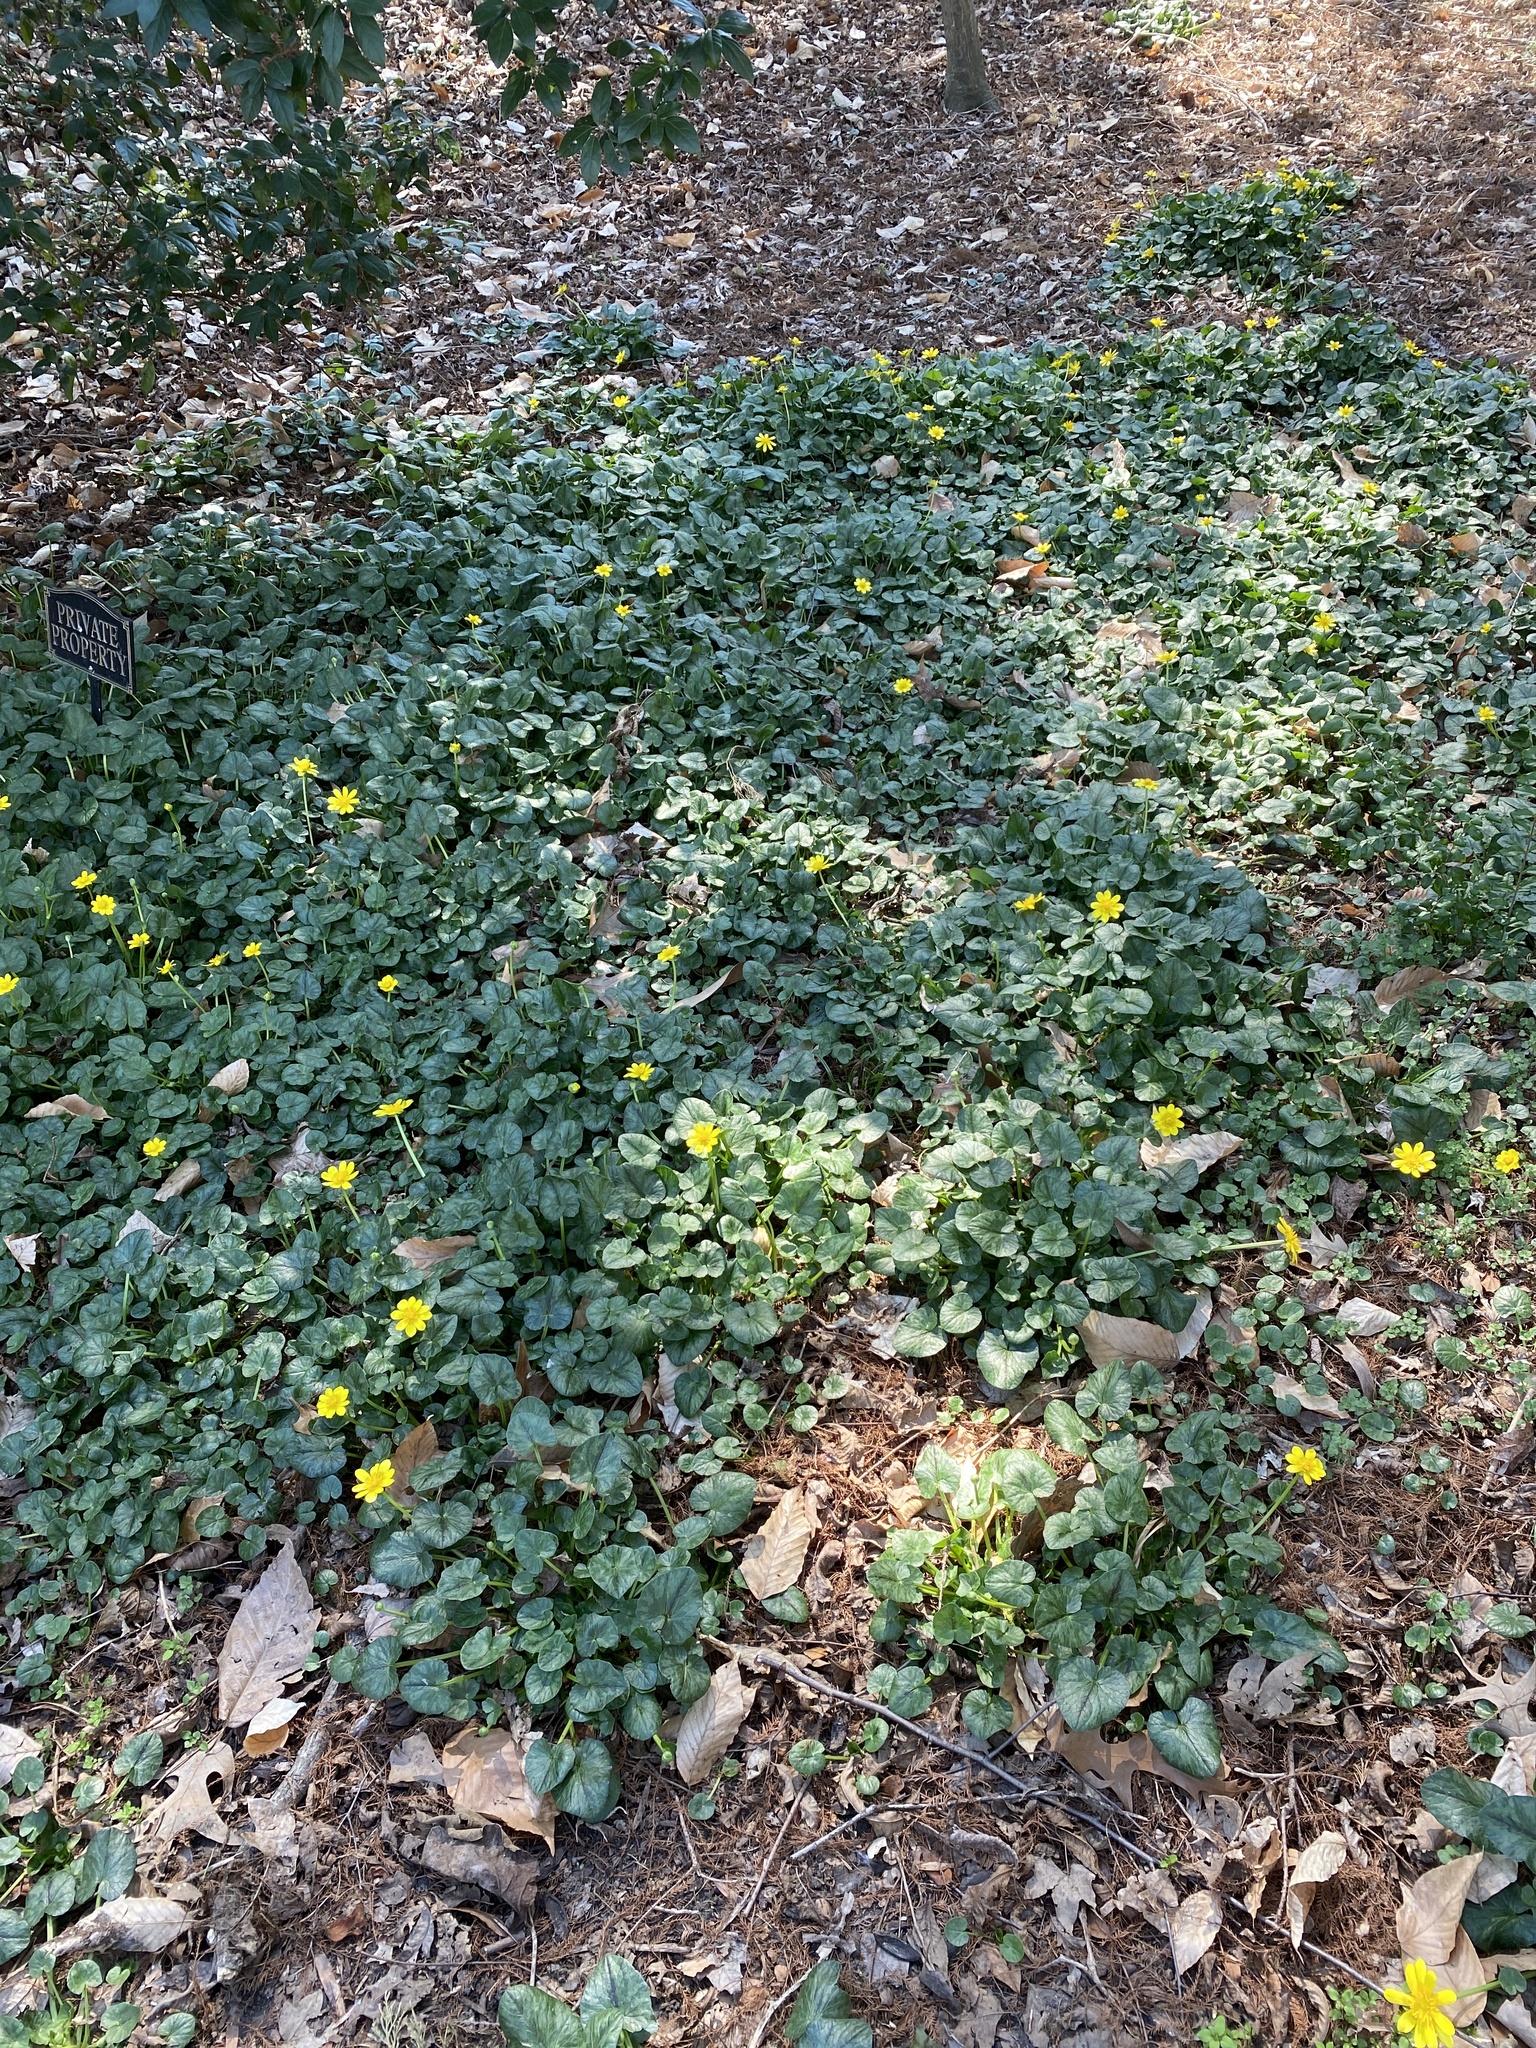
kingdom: Plantae
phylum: Tracheophyta
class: Magnoliopsida
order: Ranunculales
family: Ranunculaceae
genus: Ficaria
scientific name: Ficaria verna
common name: Lesser celandine
